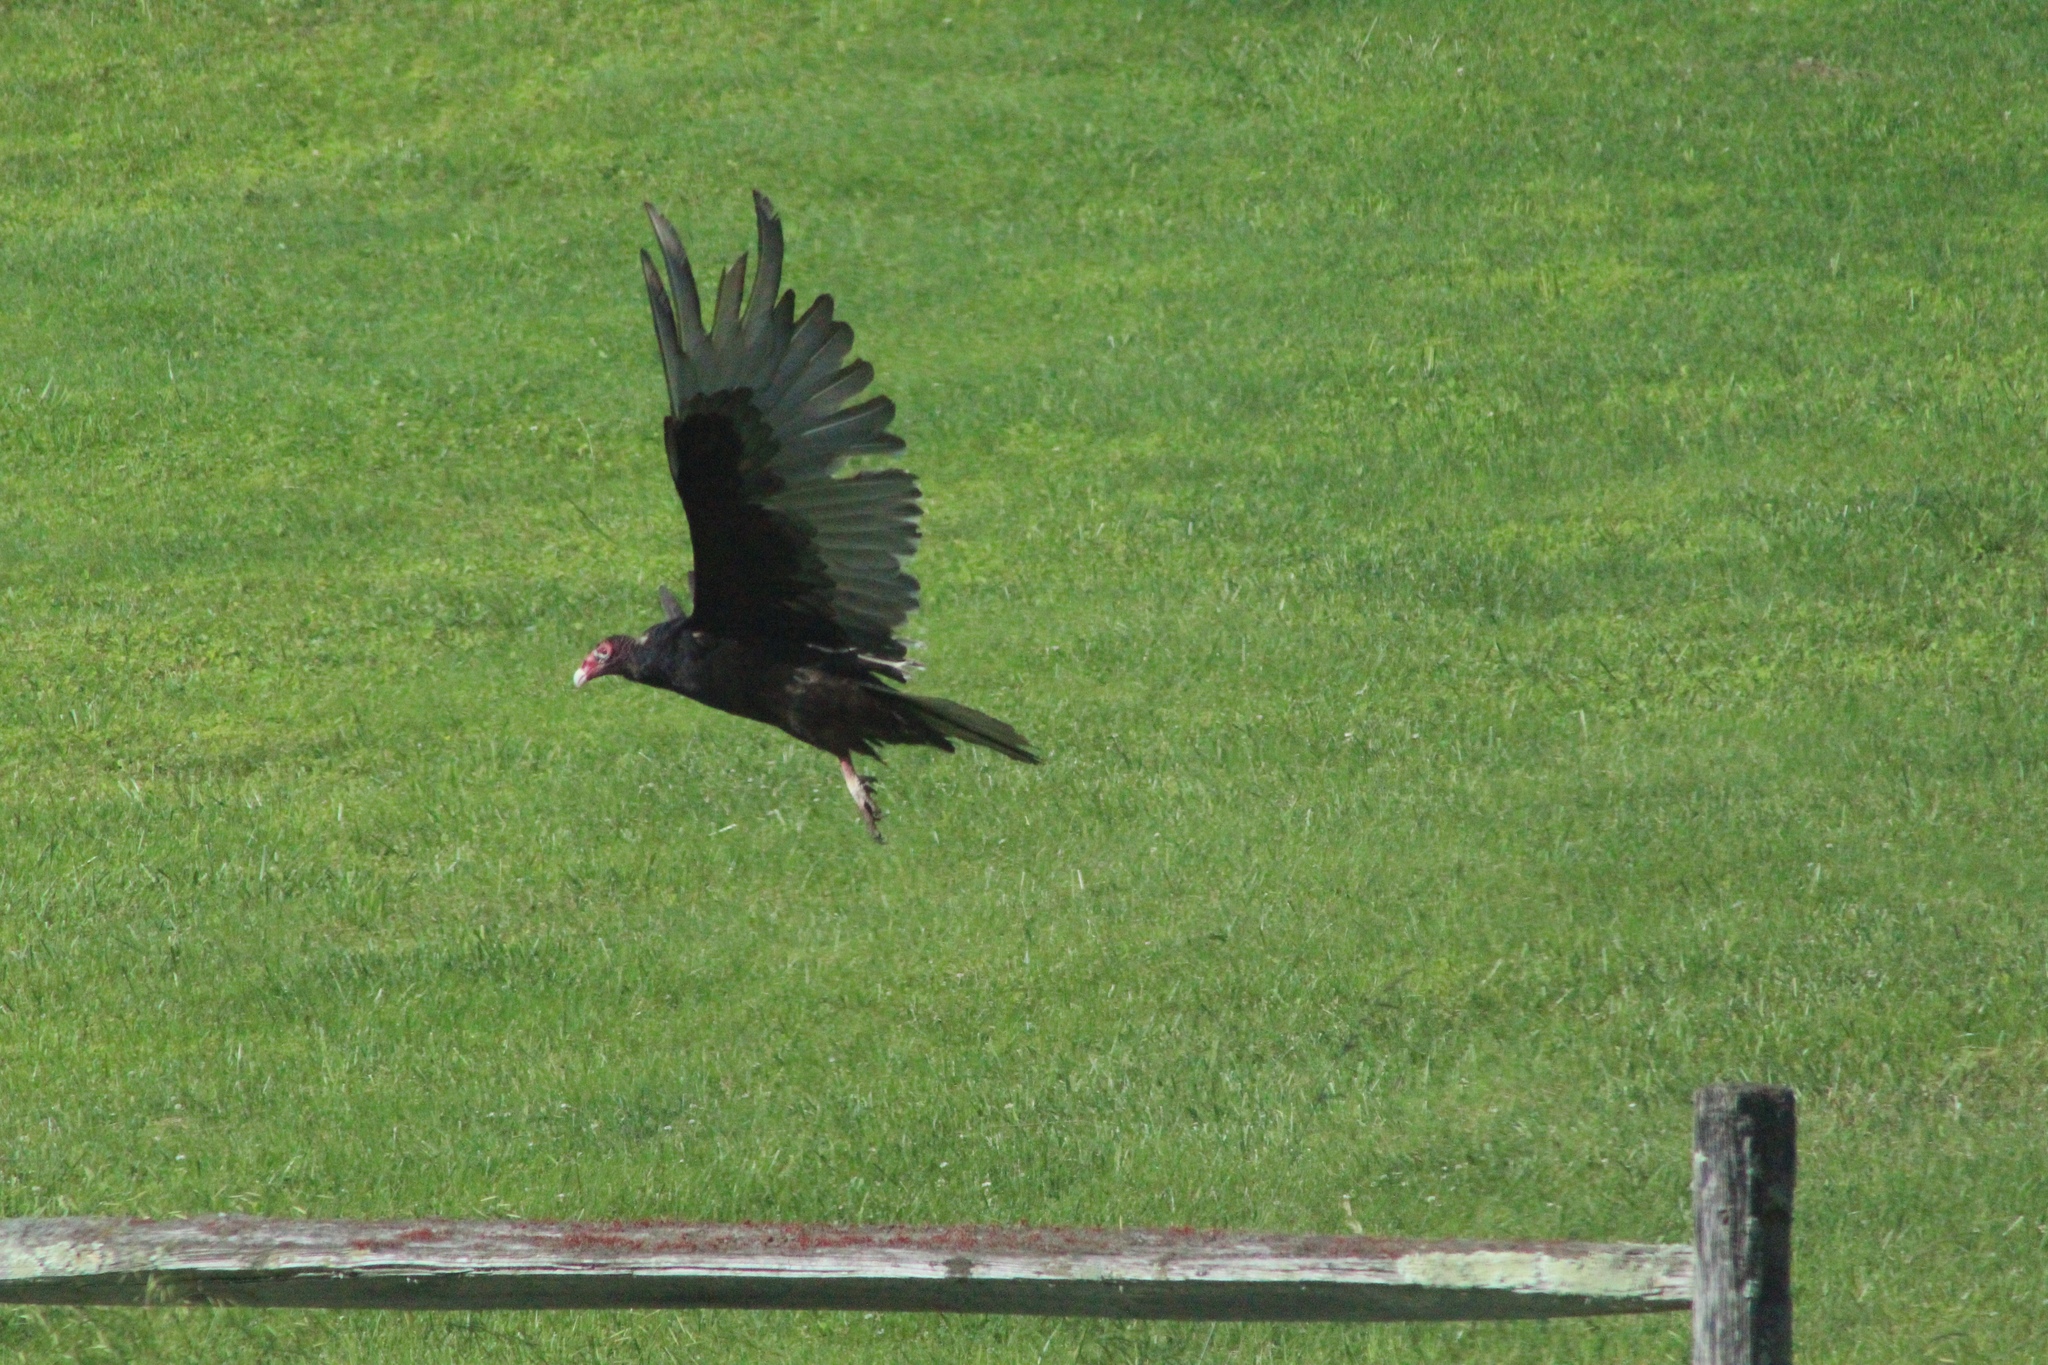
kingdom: Animalia
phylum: Chordata
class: Aves
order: Accipitriformes
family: Cathartidae
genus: Cathartes
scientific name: Cathartes aura
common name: Turkey vulture
